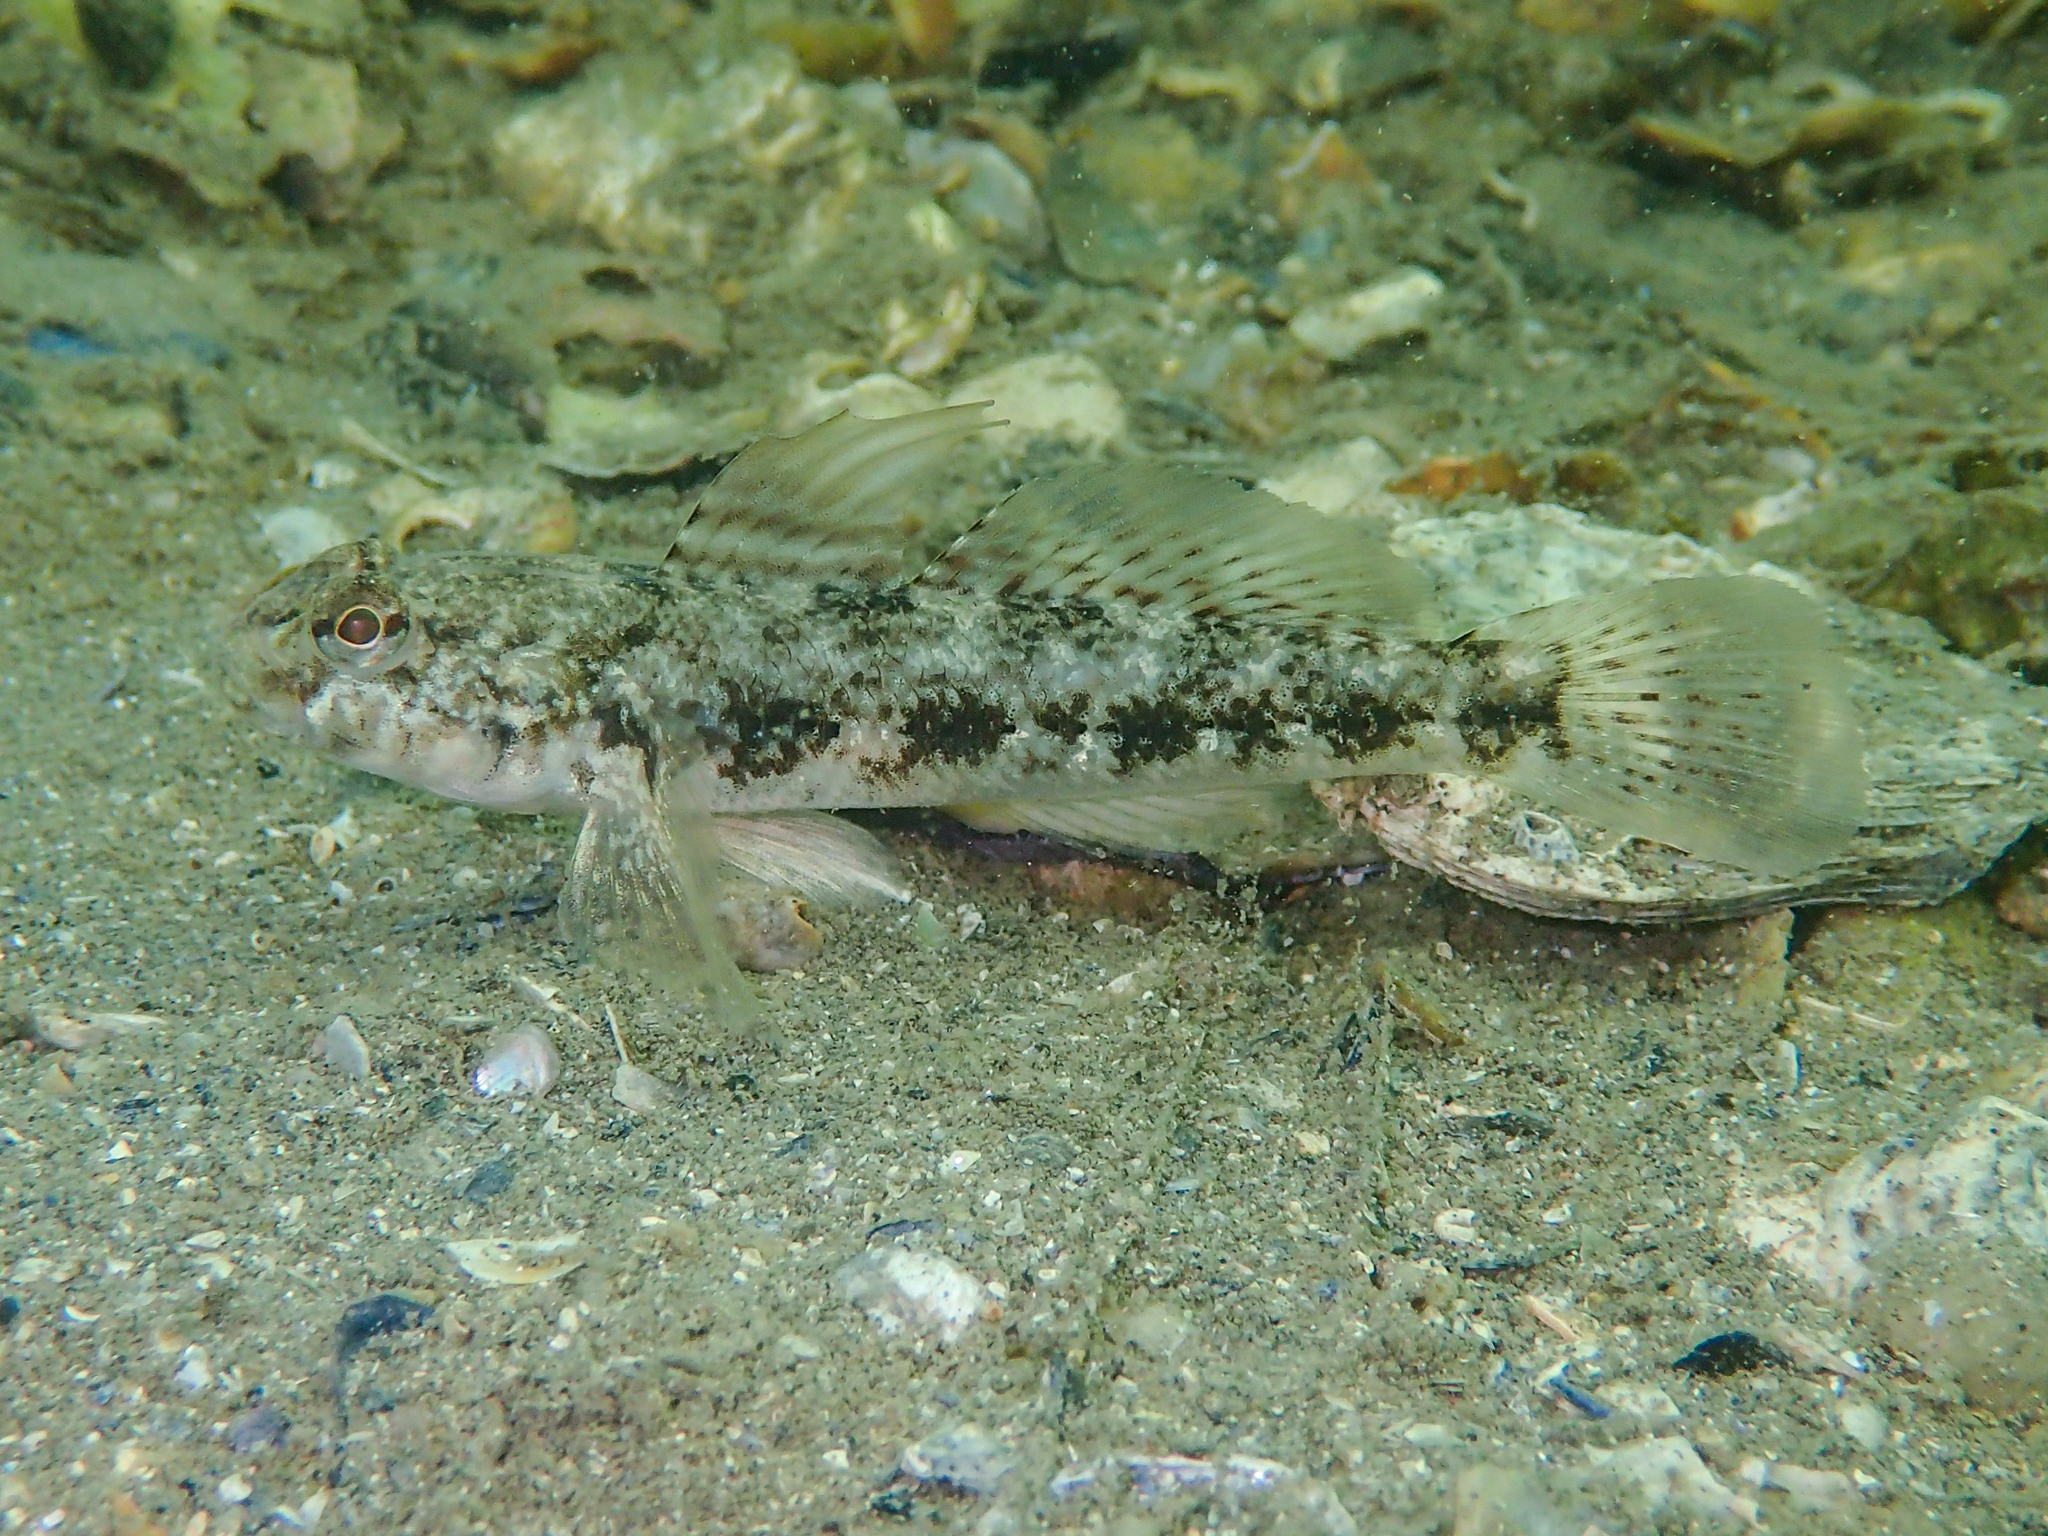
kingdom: Animalia
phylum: Chordata
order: Perciformes
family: Gobiidae
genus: Gobius
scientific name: Gobius niger
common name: Black goby
